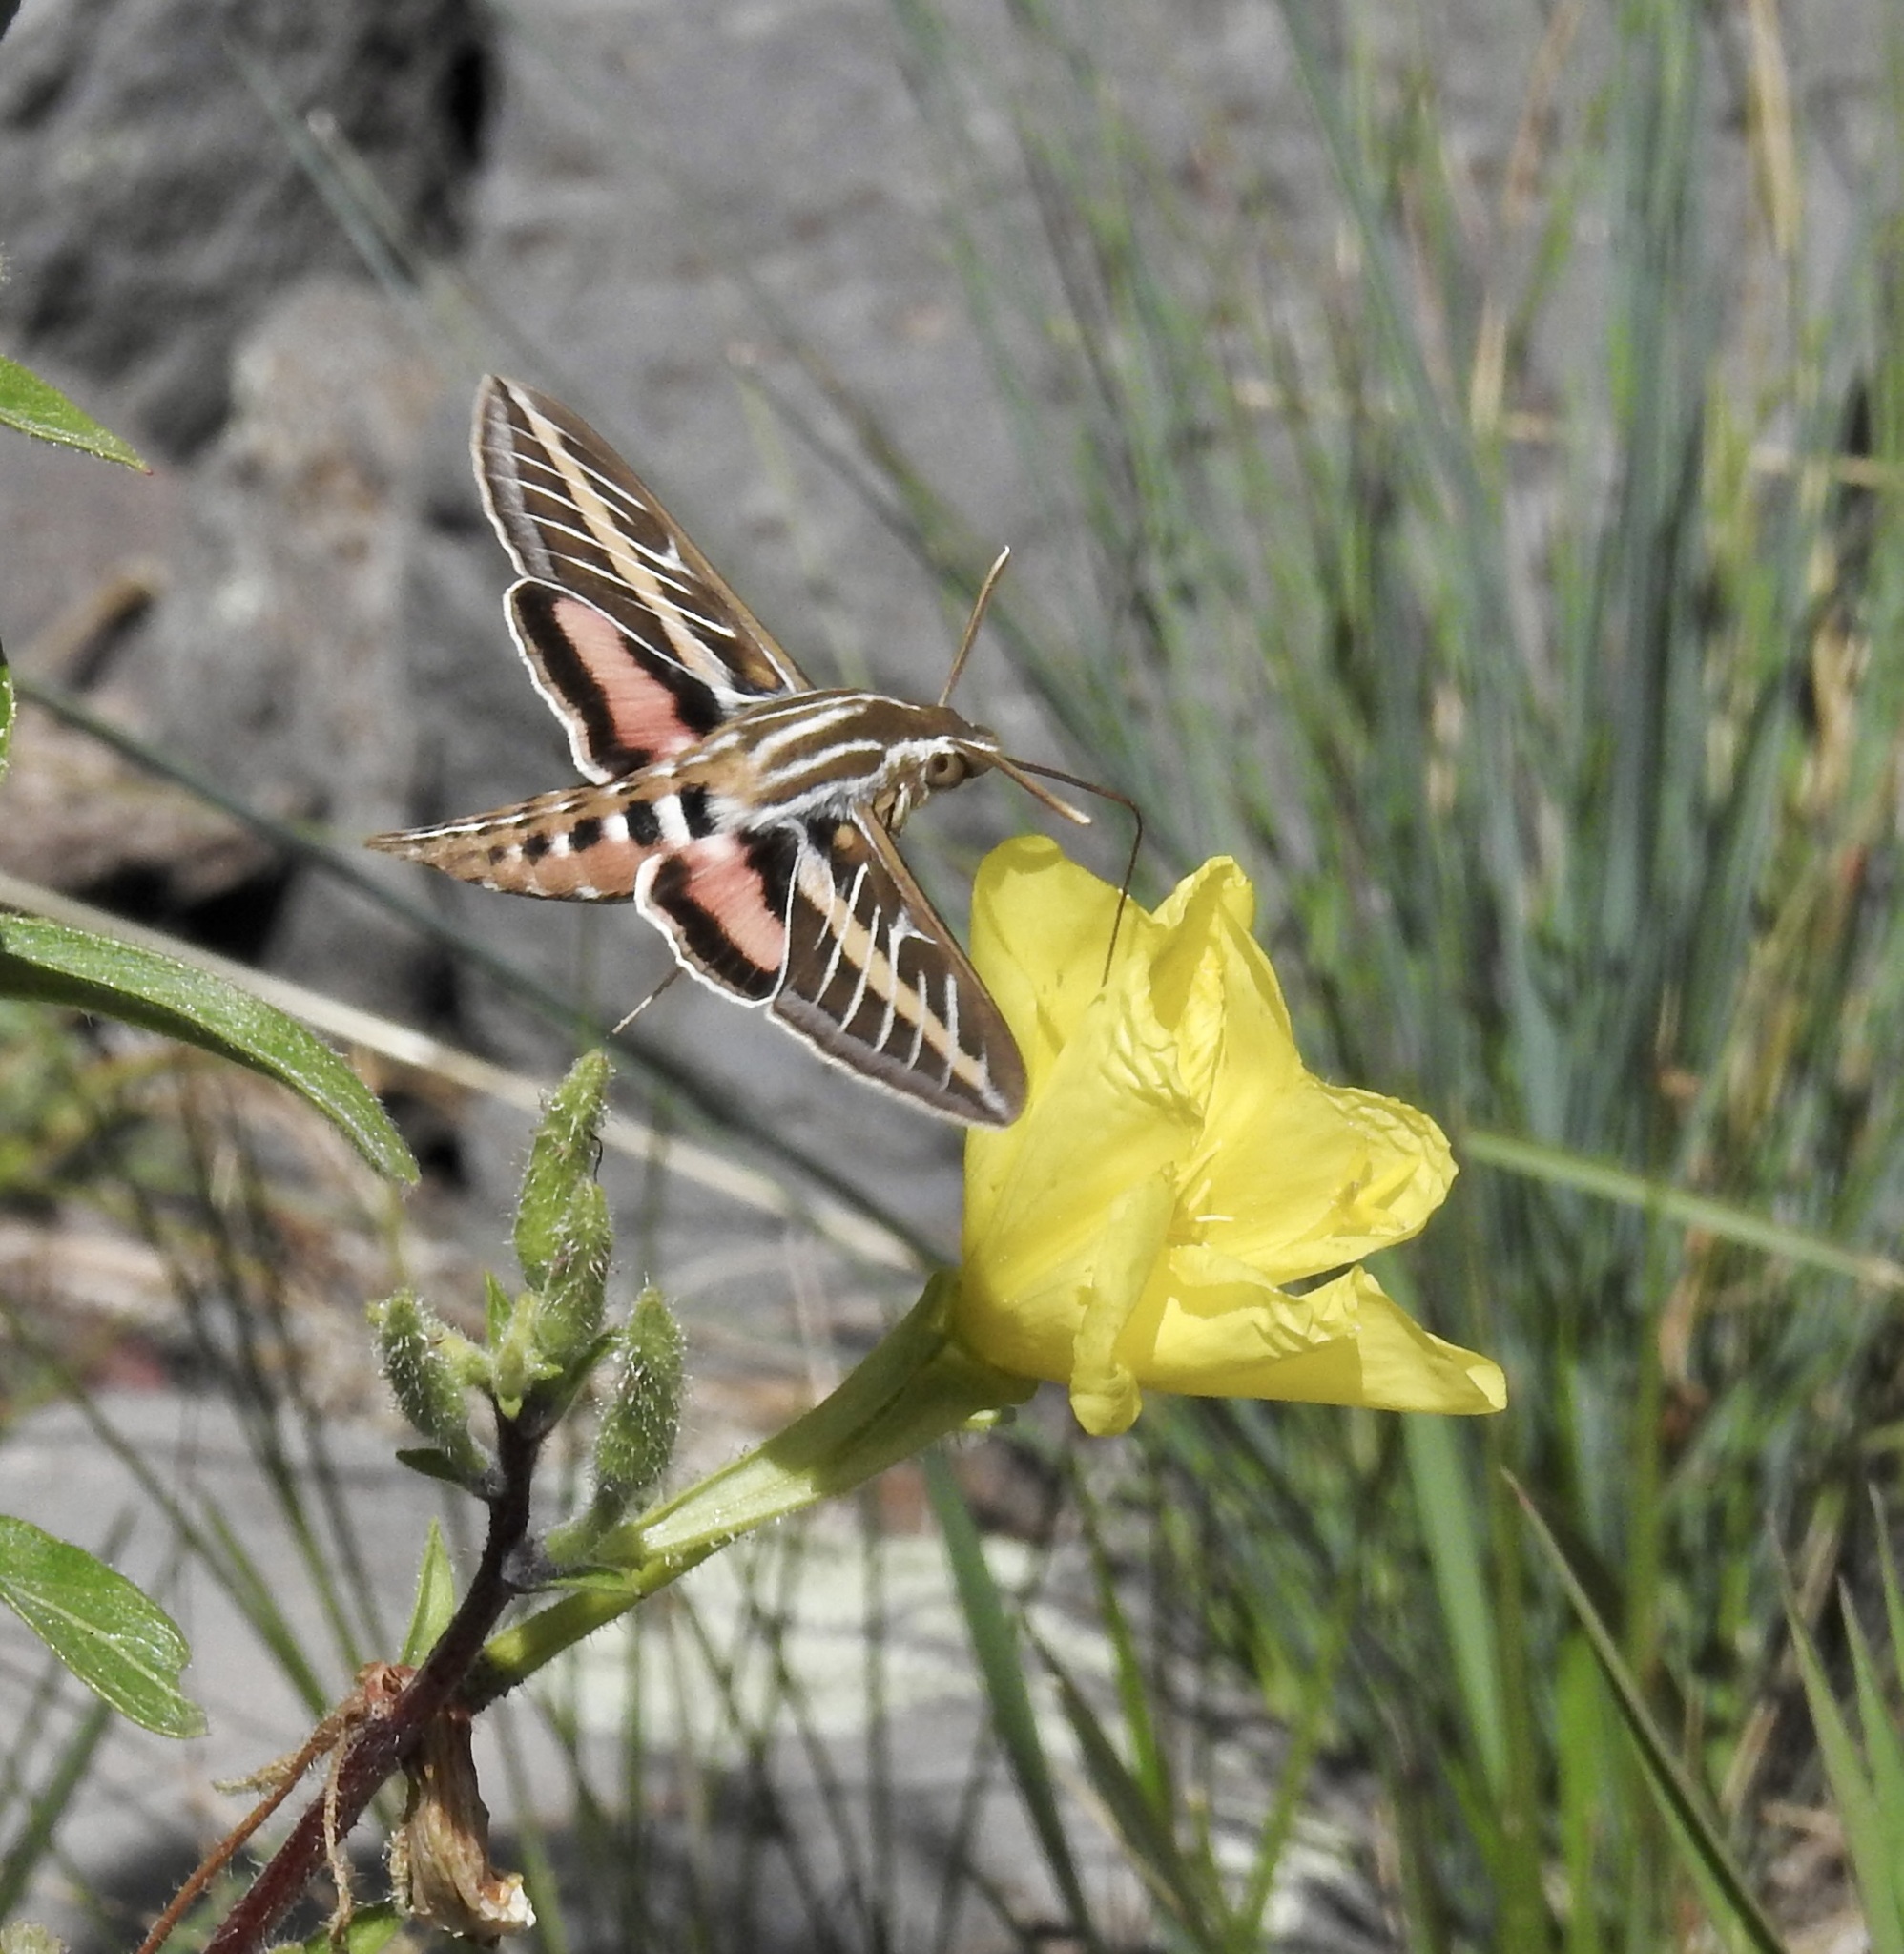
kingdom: Animalia
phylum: Arthropoda
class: Insecta
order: Lepidoptera
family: Sphingidae
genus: Hyles
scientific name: Hyles lineata
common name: White-lined sphinx
